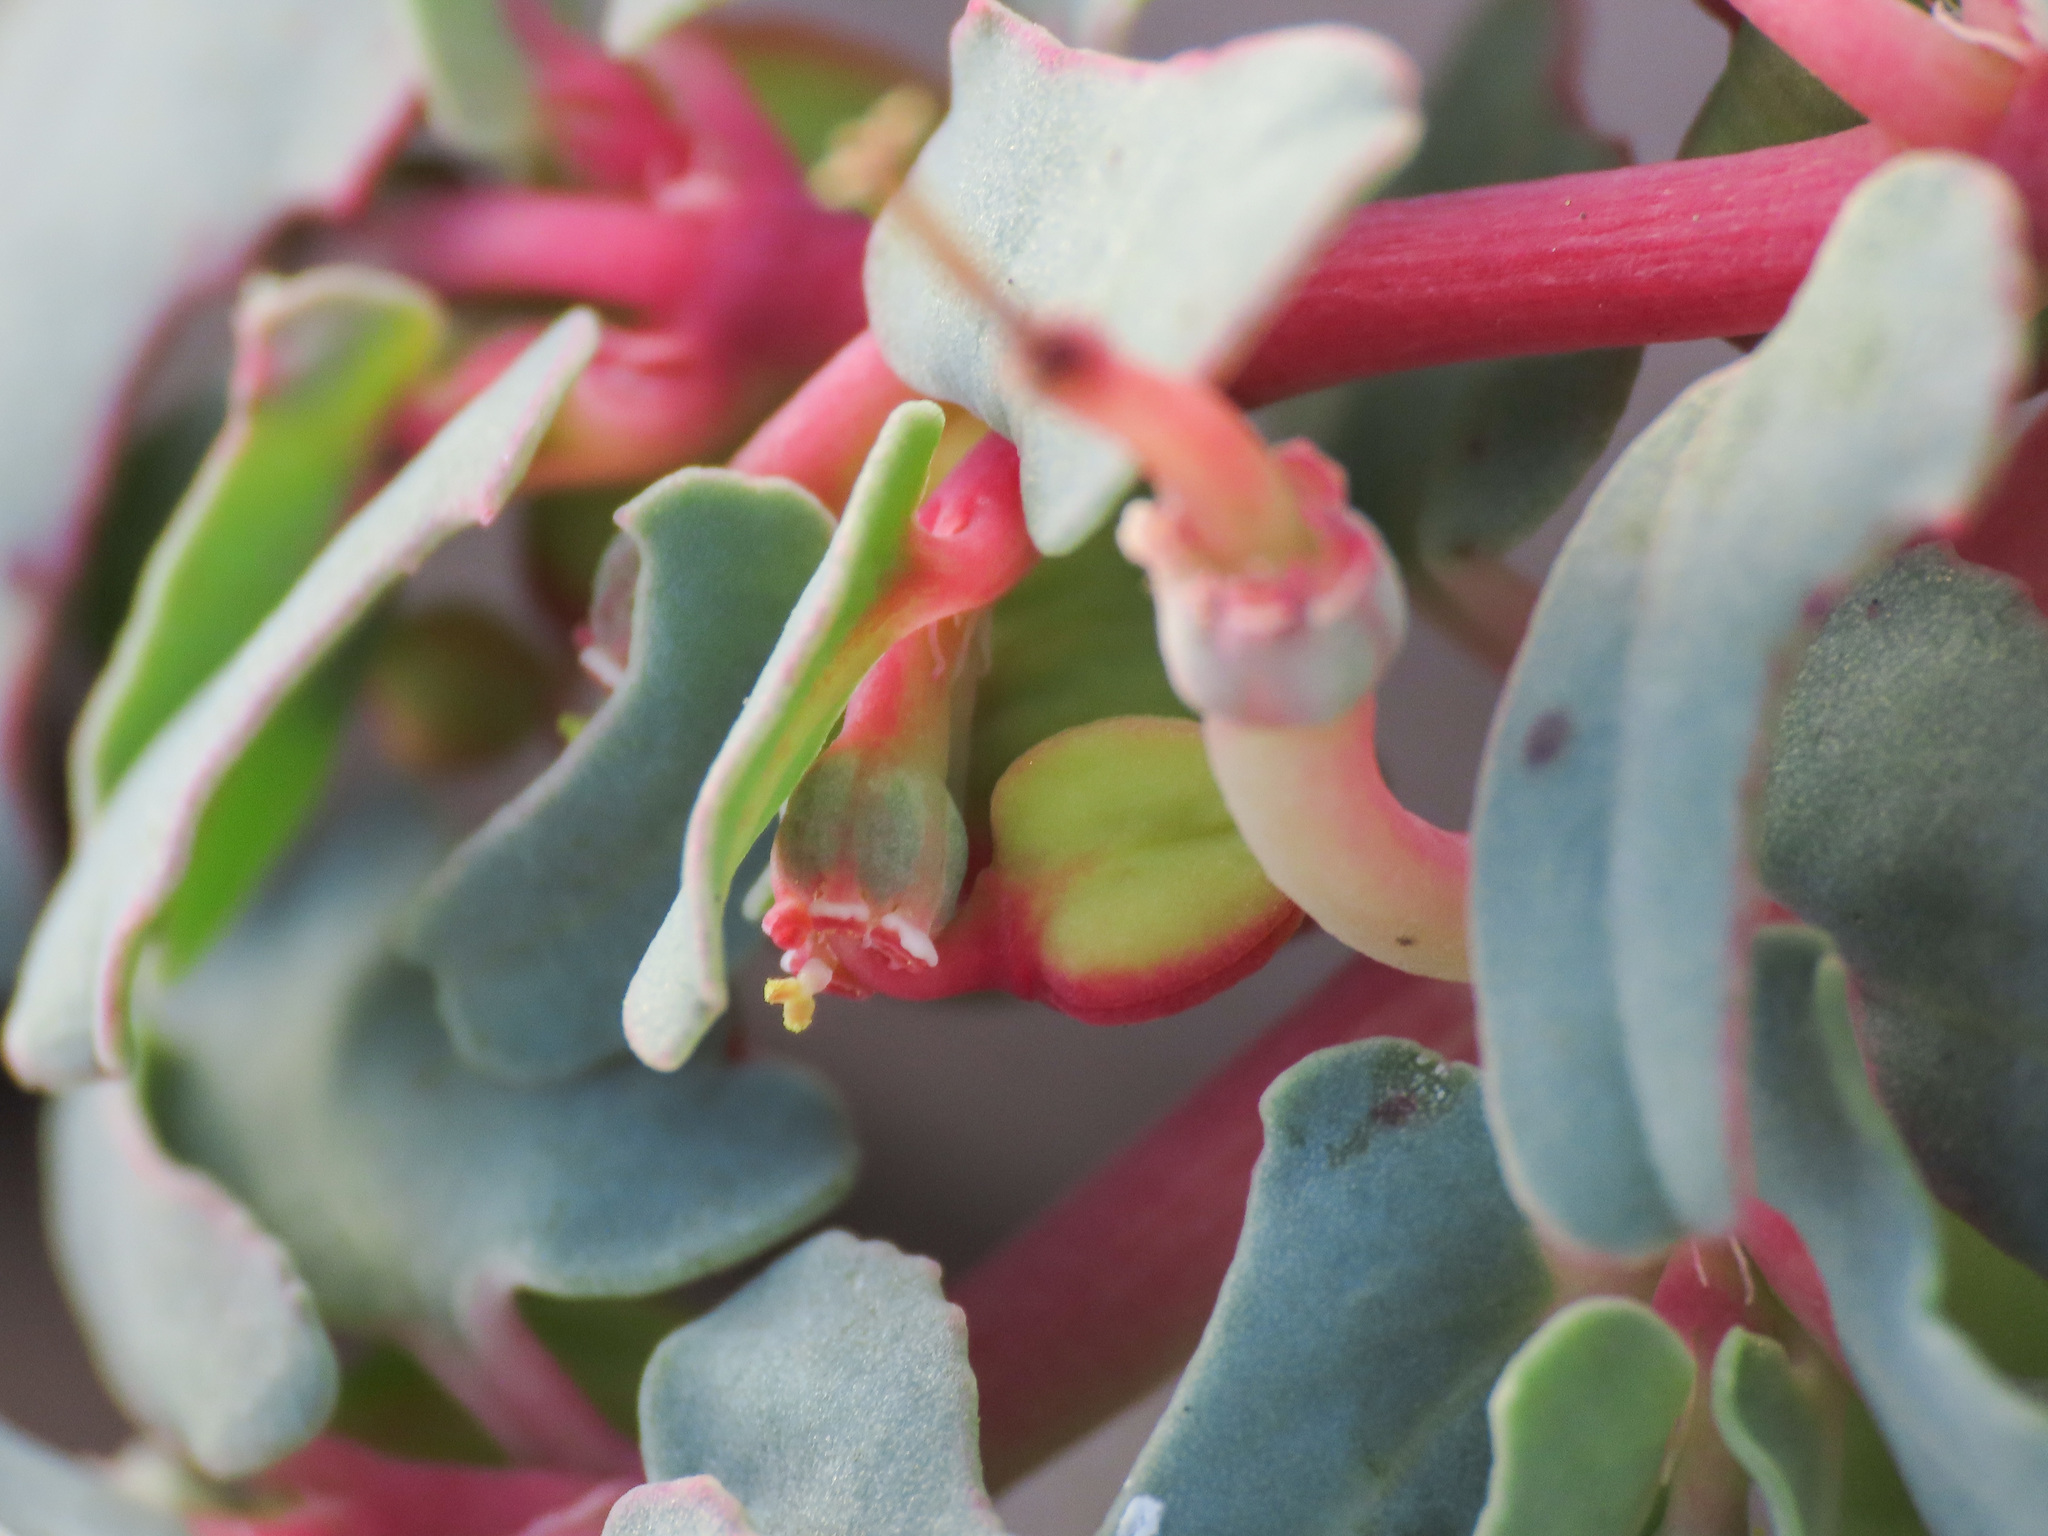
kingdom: Plantae
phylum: Tracheophyta
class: Magnoliopsida
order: Malpighiales
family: Euphorbiaceae
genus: Euphorbia
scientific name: Euphorbia peplis
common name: Purple spurge
